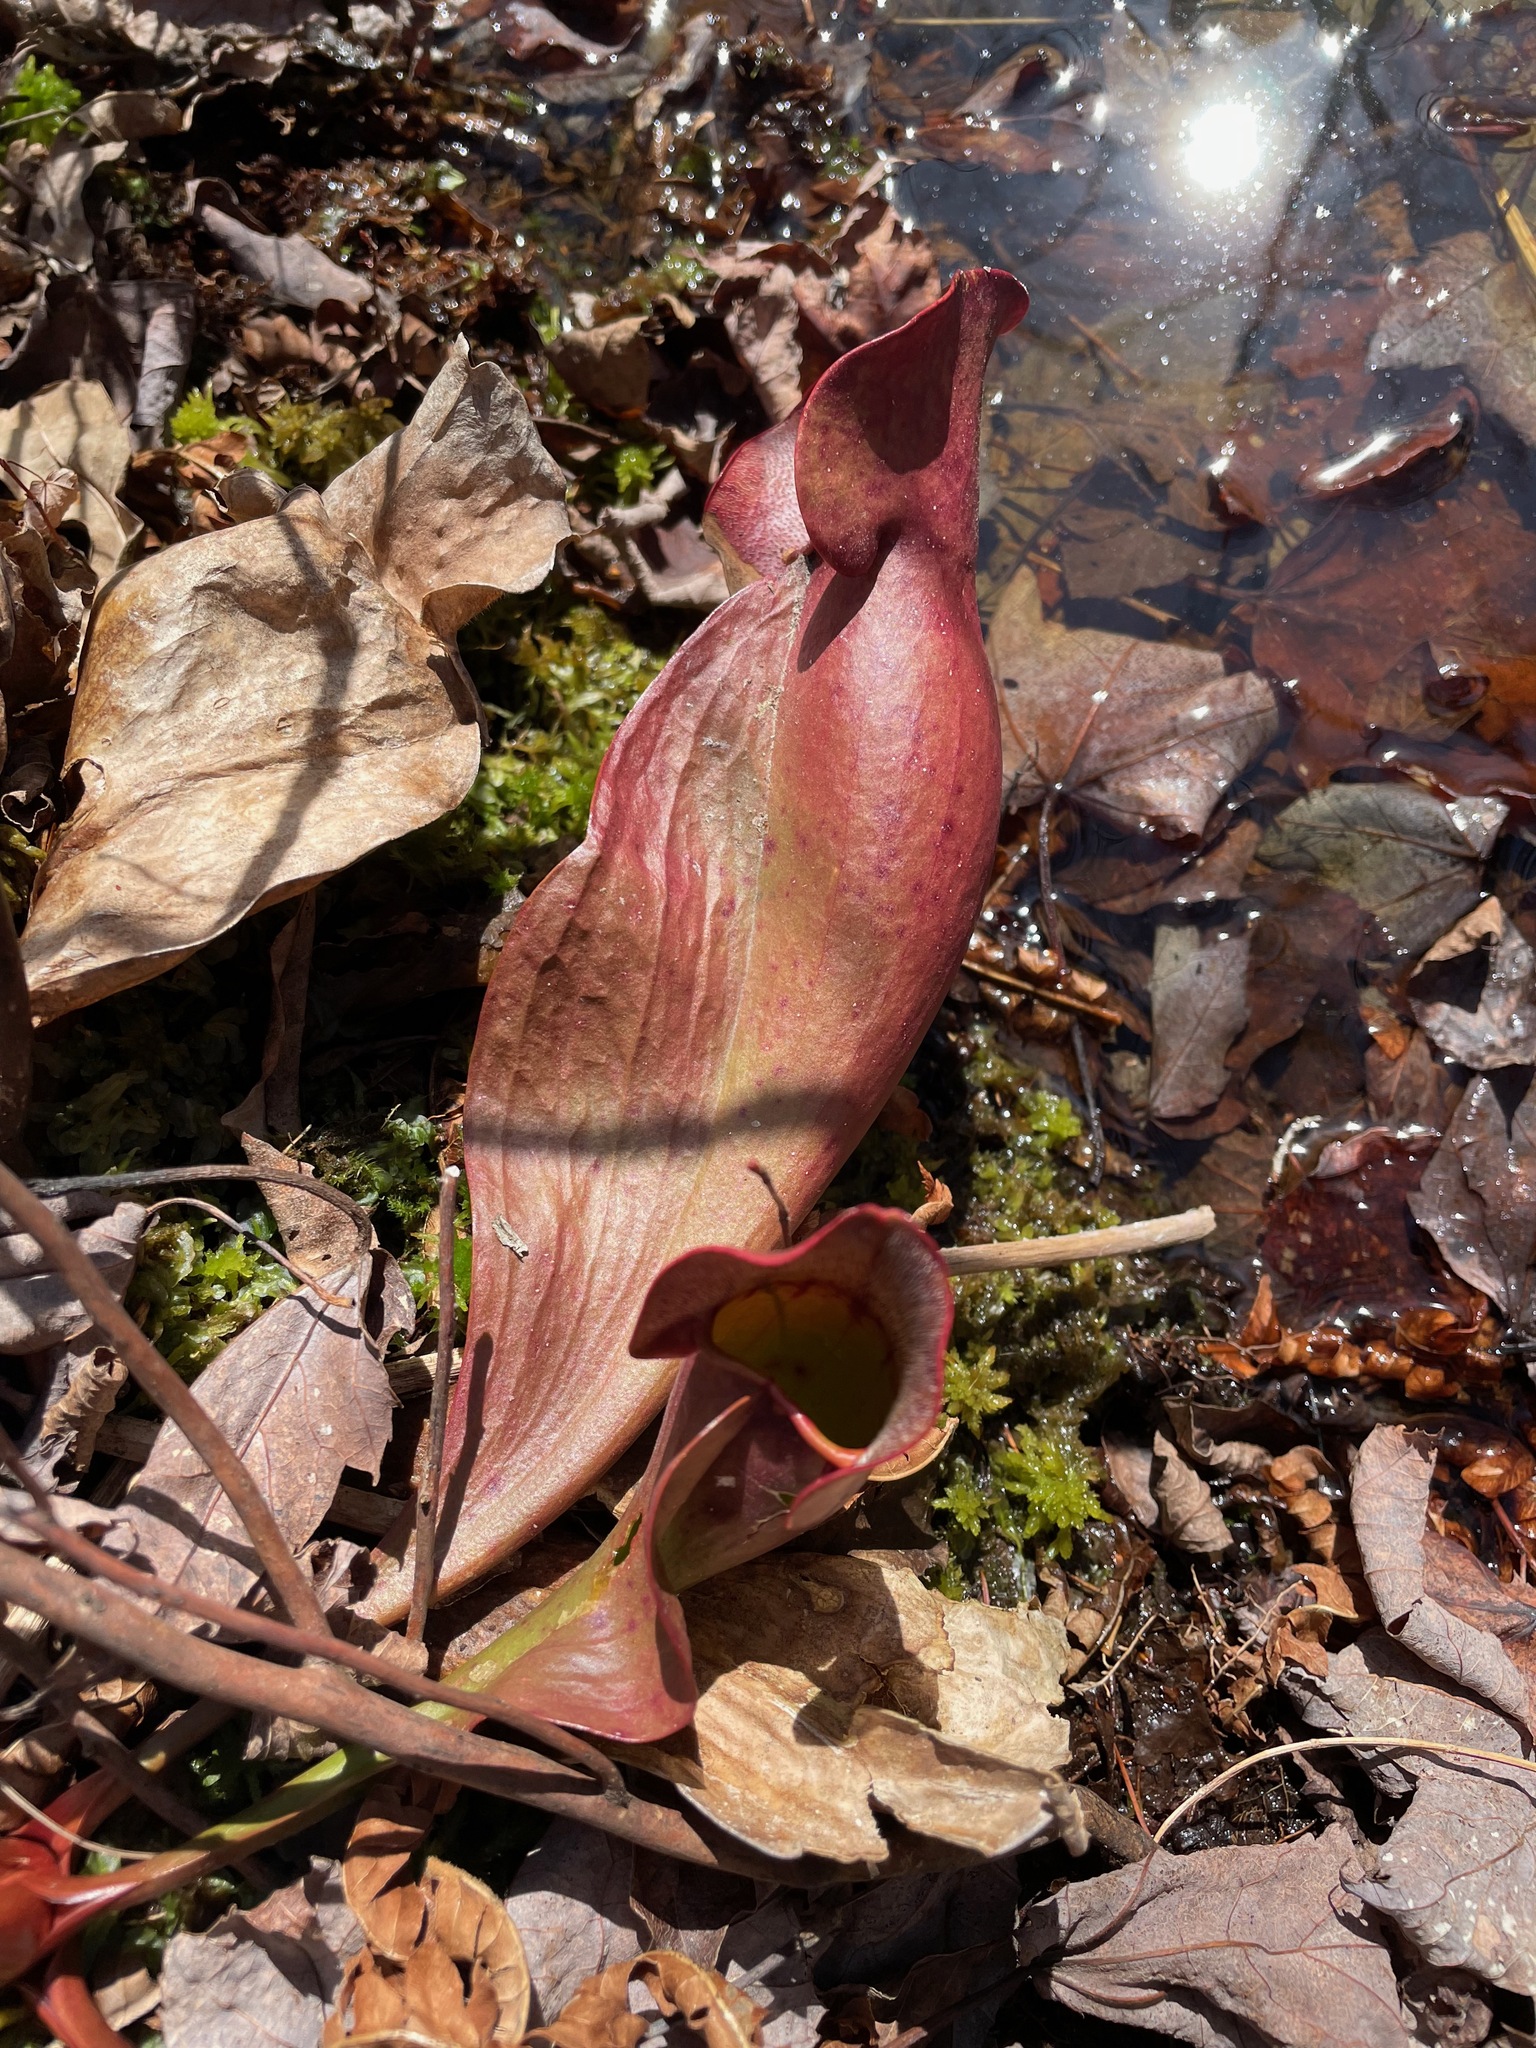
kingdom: Plantae
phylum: Tracheophyta
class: Magnoliopsida
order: Ericales
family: Sarraceniaceae
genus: Sarracenia
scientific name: Sarracenia purpurea
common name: Pitcherplant
